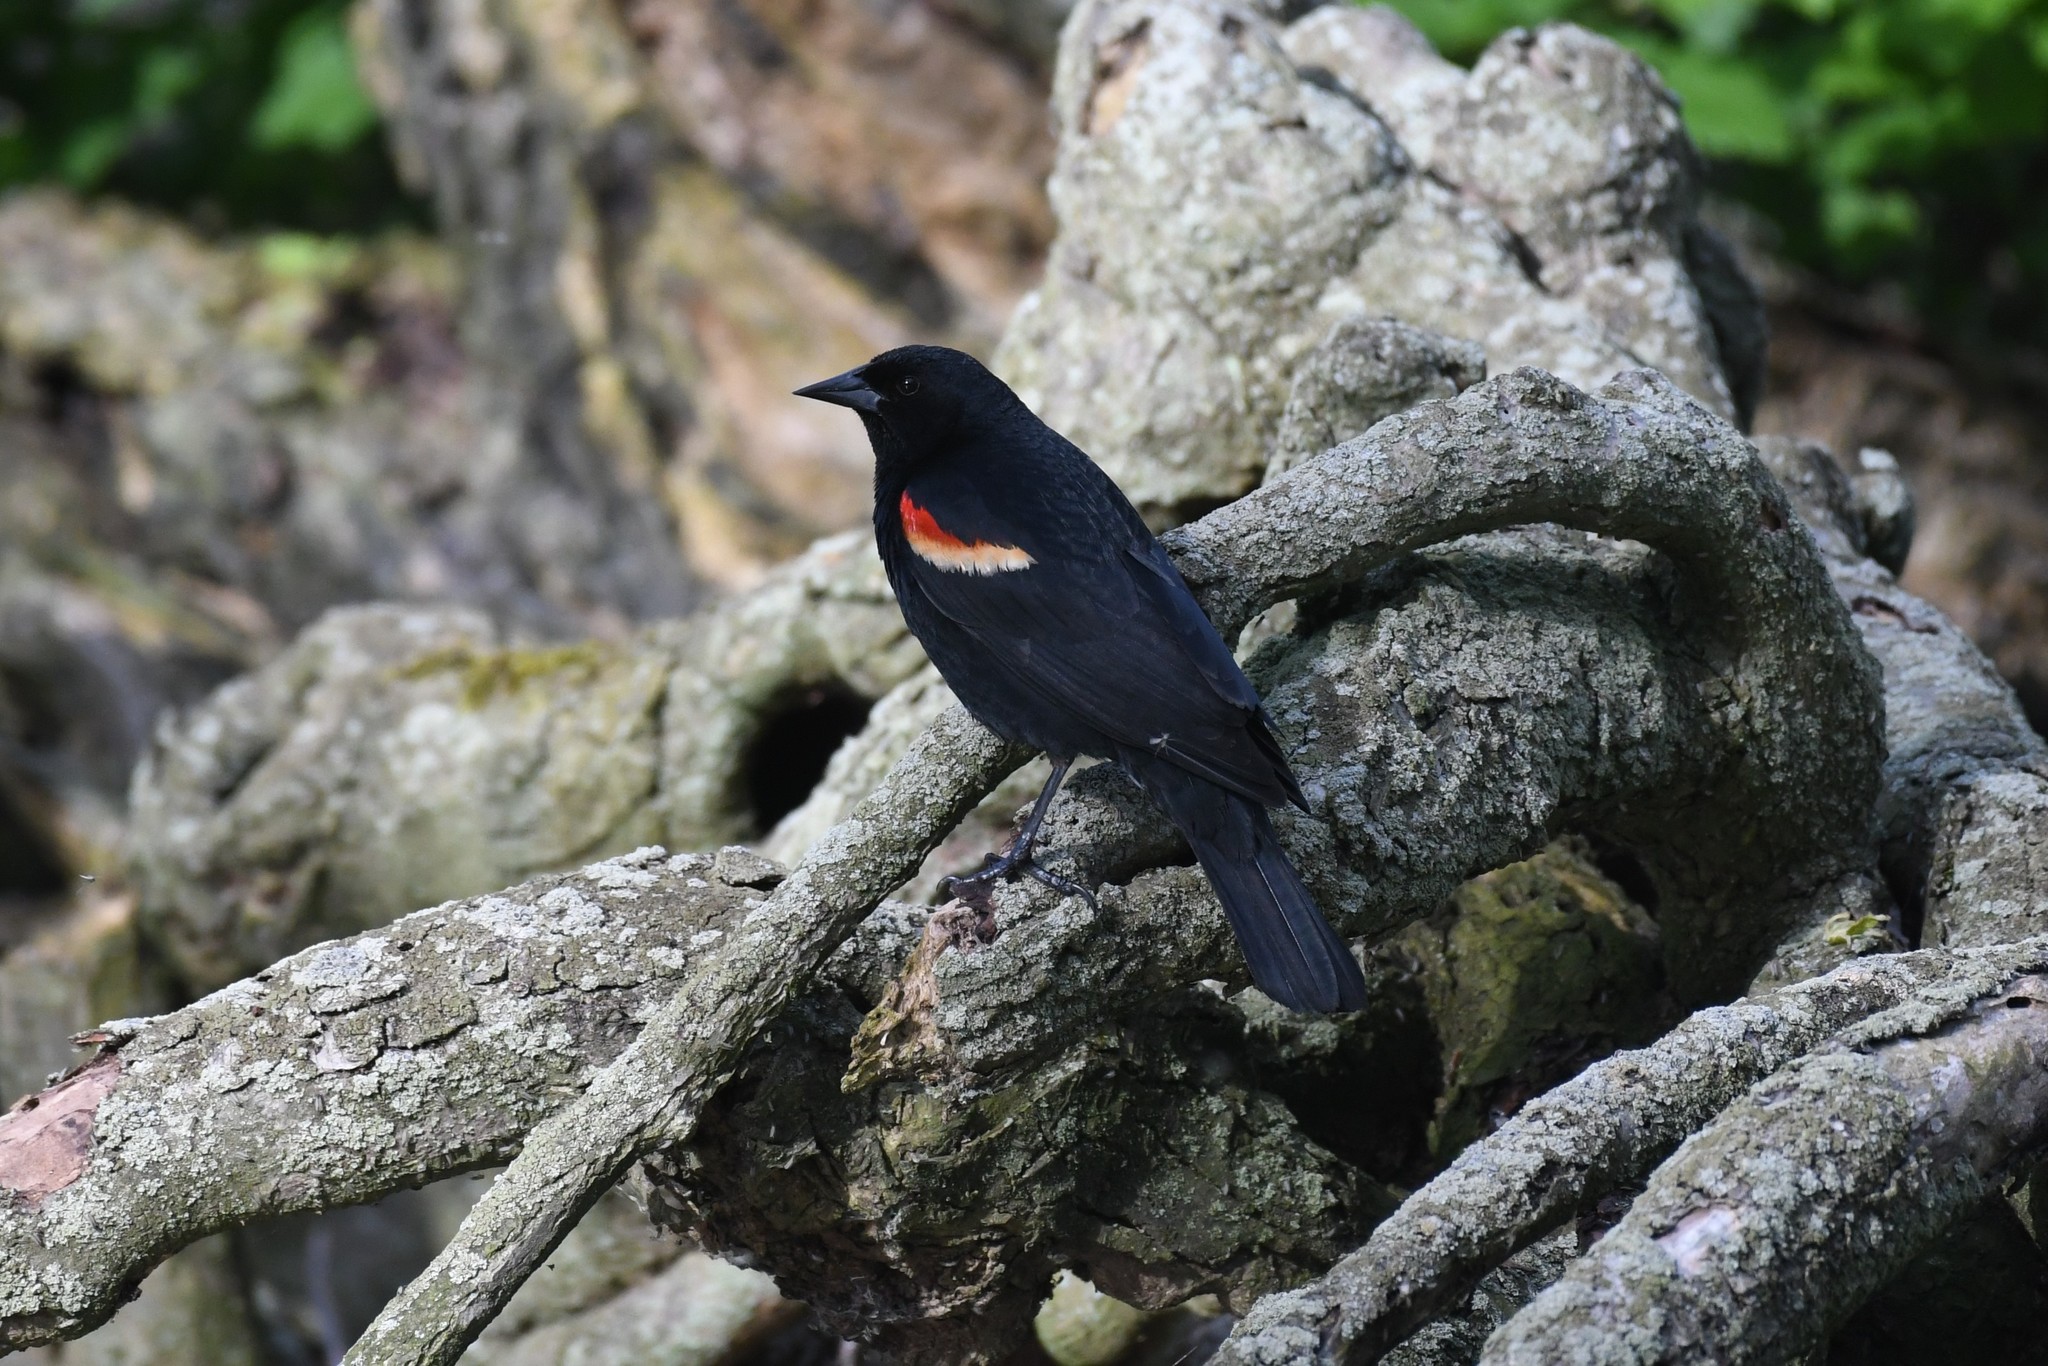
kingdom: Animalia
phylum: Chordata
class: Aves
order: Passeriformes
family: Icteridae
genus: Agelaius
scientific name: Agelaius phoeniceus
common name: Red-winged blackbird
